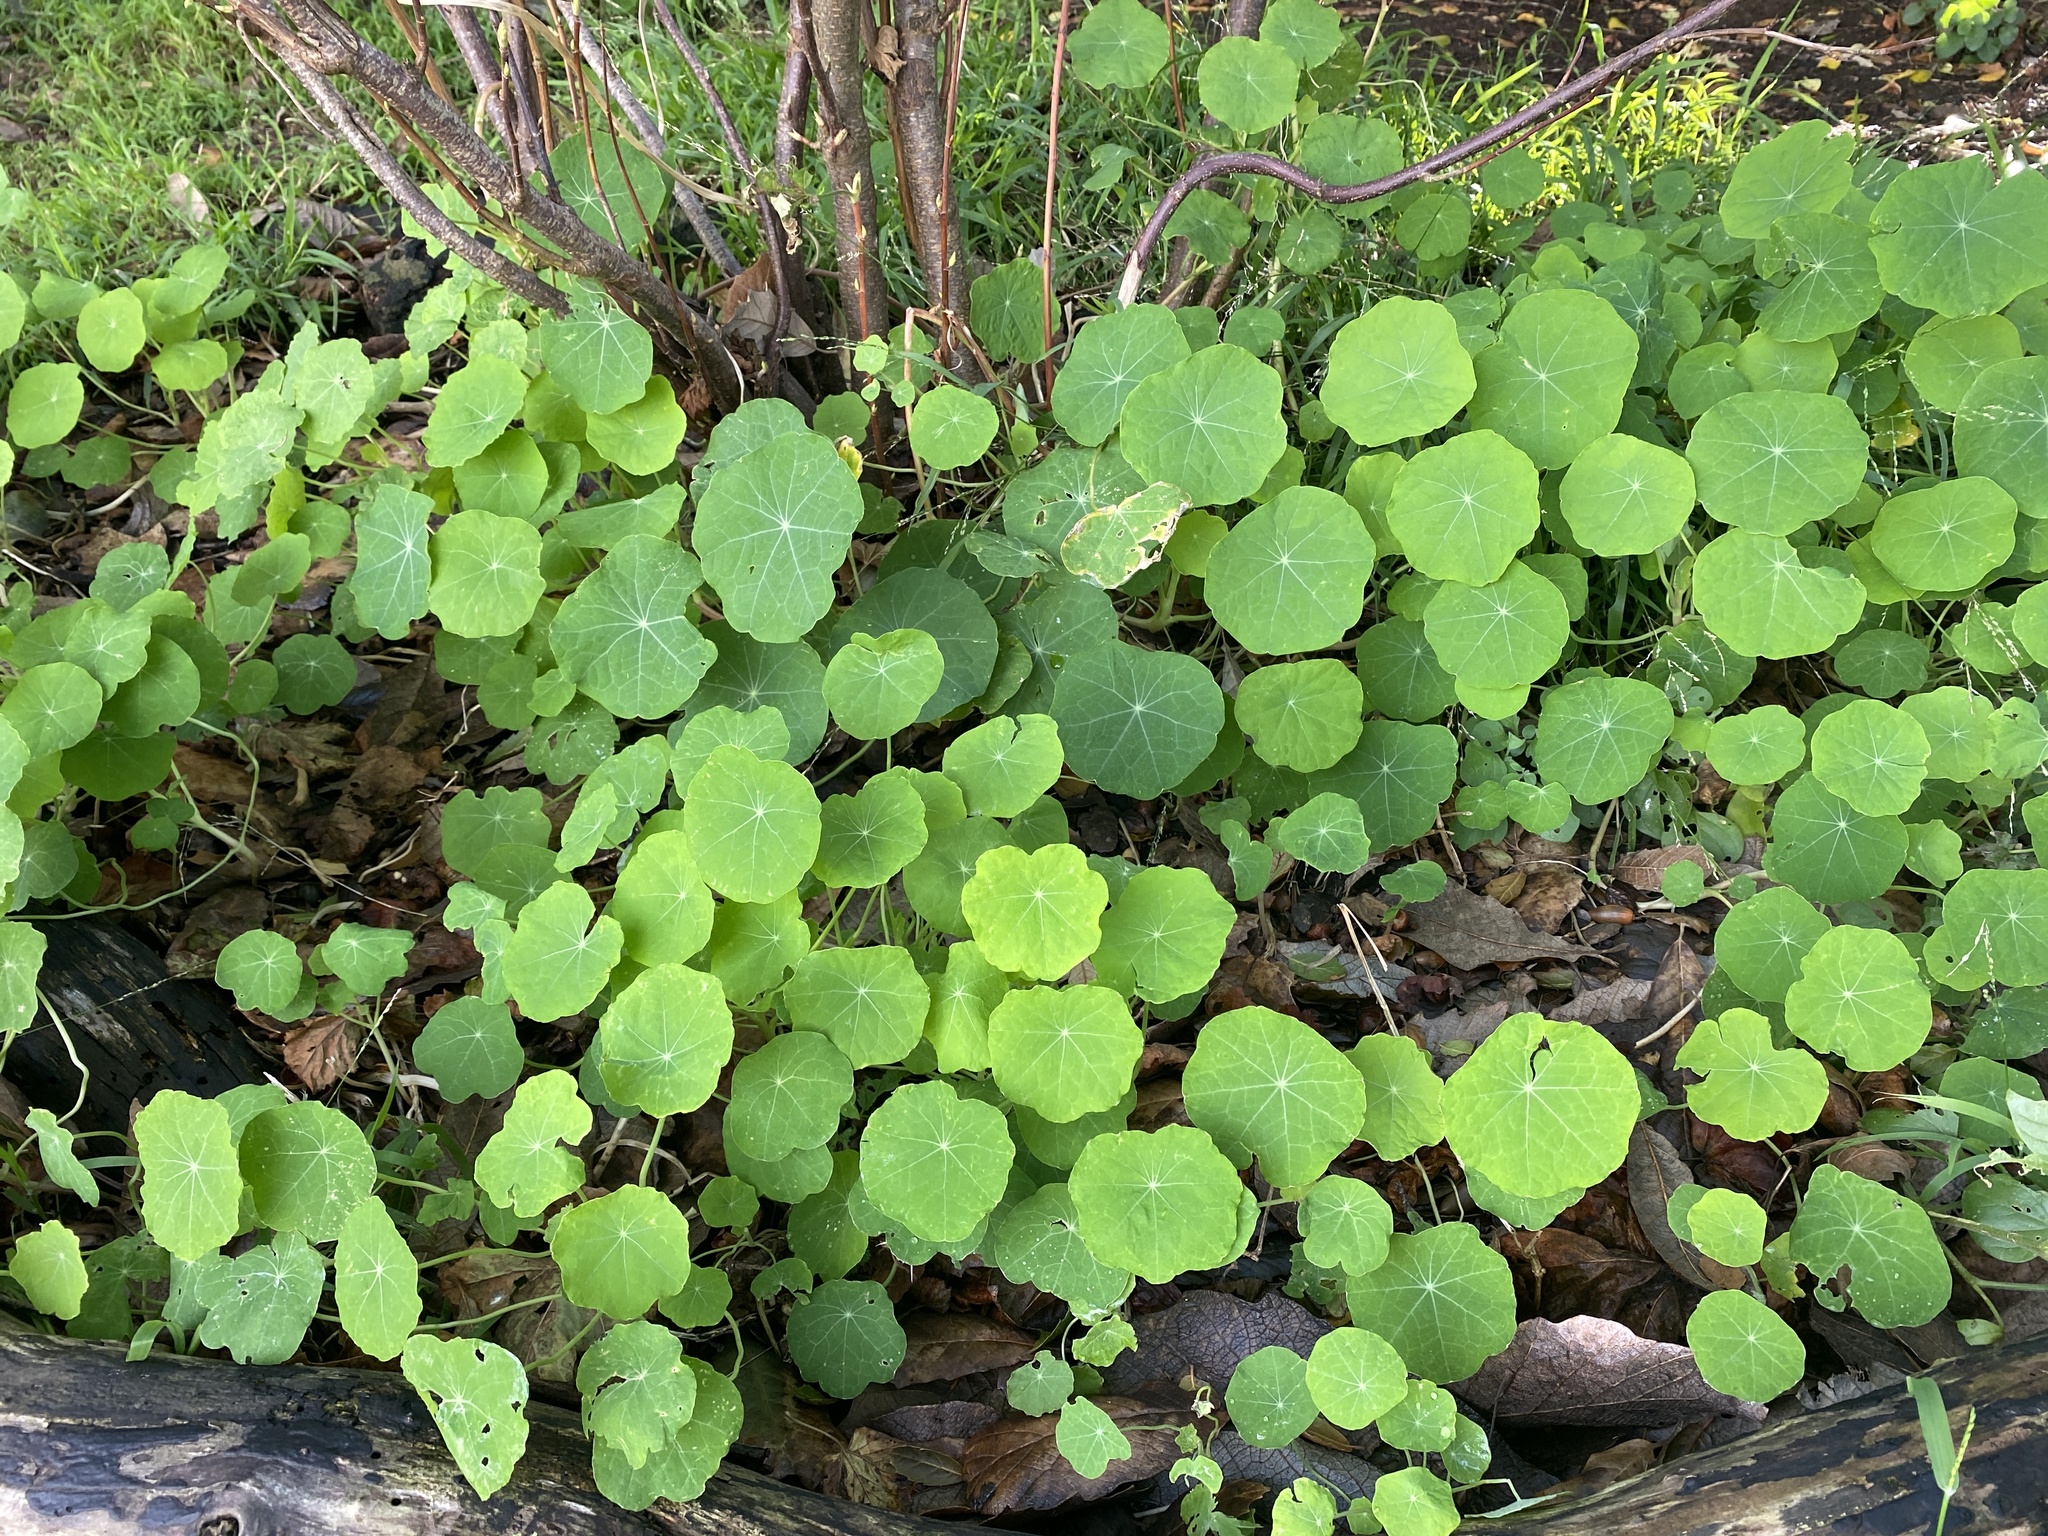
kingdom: Plantae
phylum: Tracheophyta
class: Magnoliopsida
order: Brassicales
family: Tropaeolaceae
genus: Tropaeolum
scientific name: Tropaeolum majus
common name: Nasturtium
